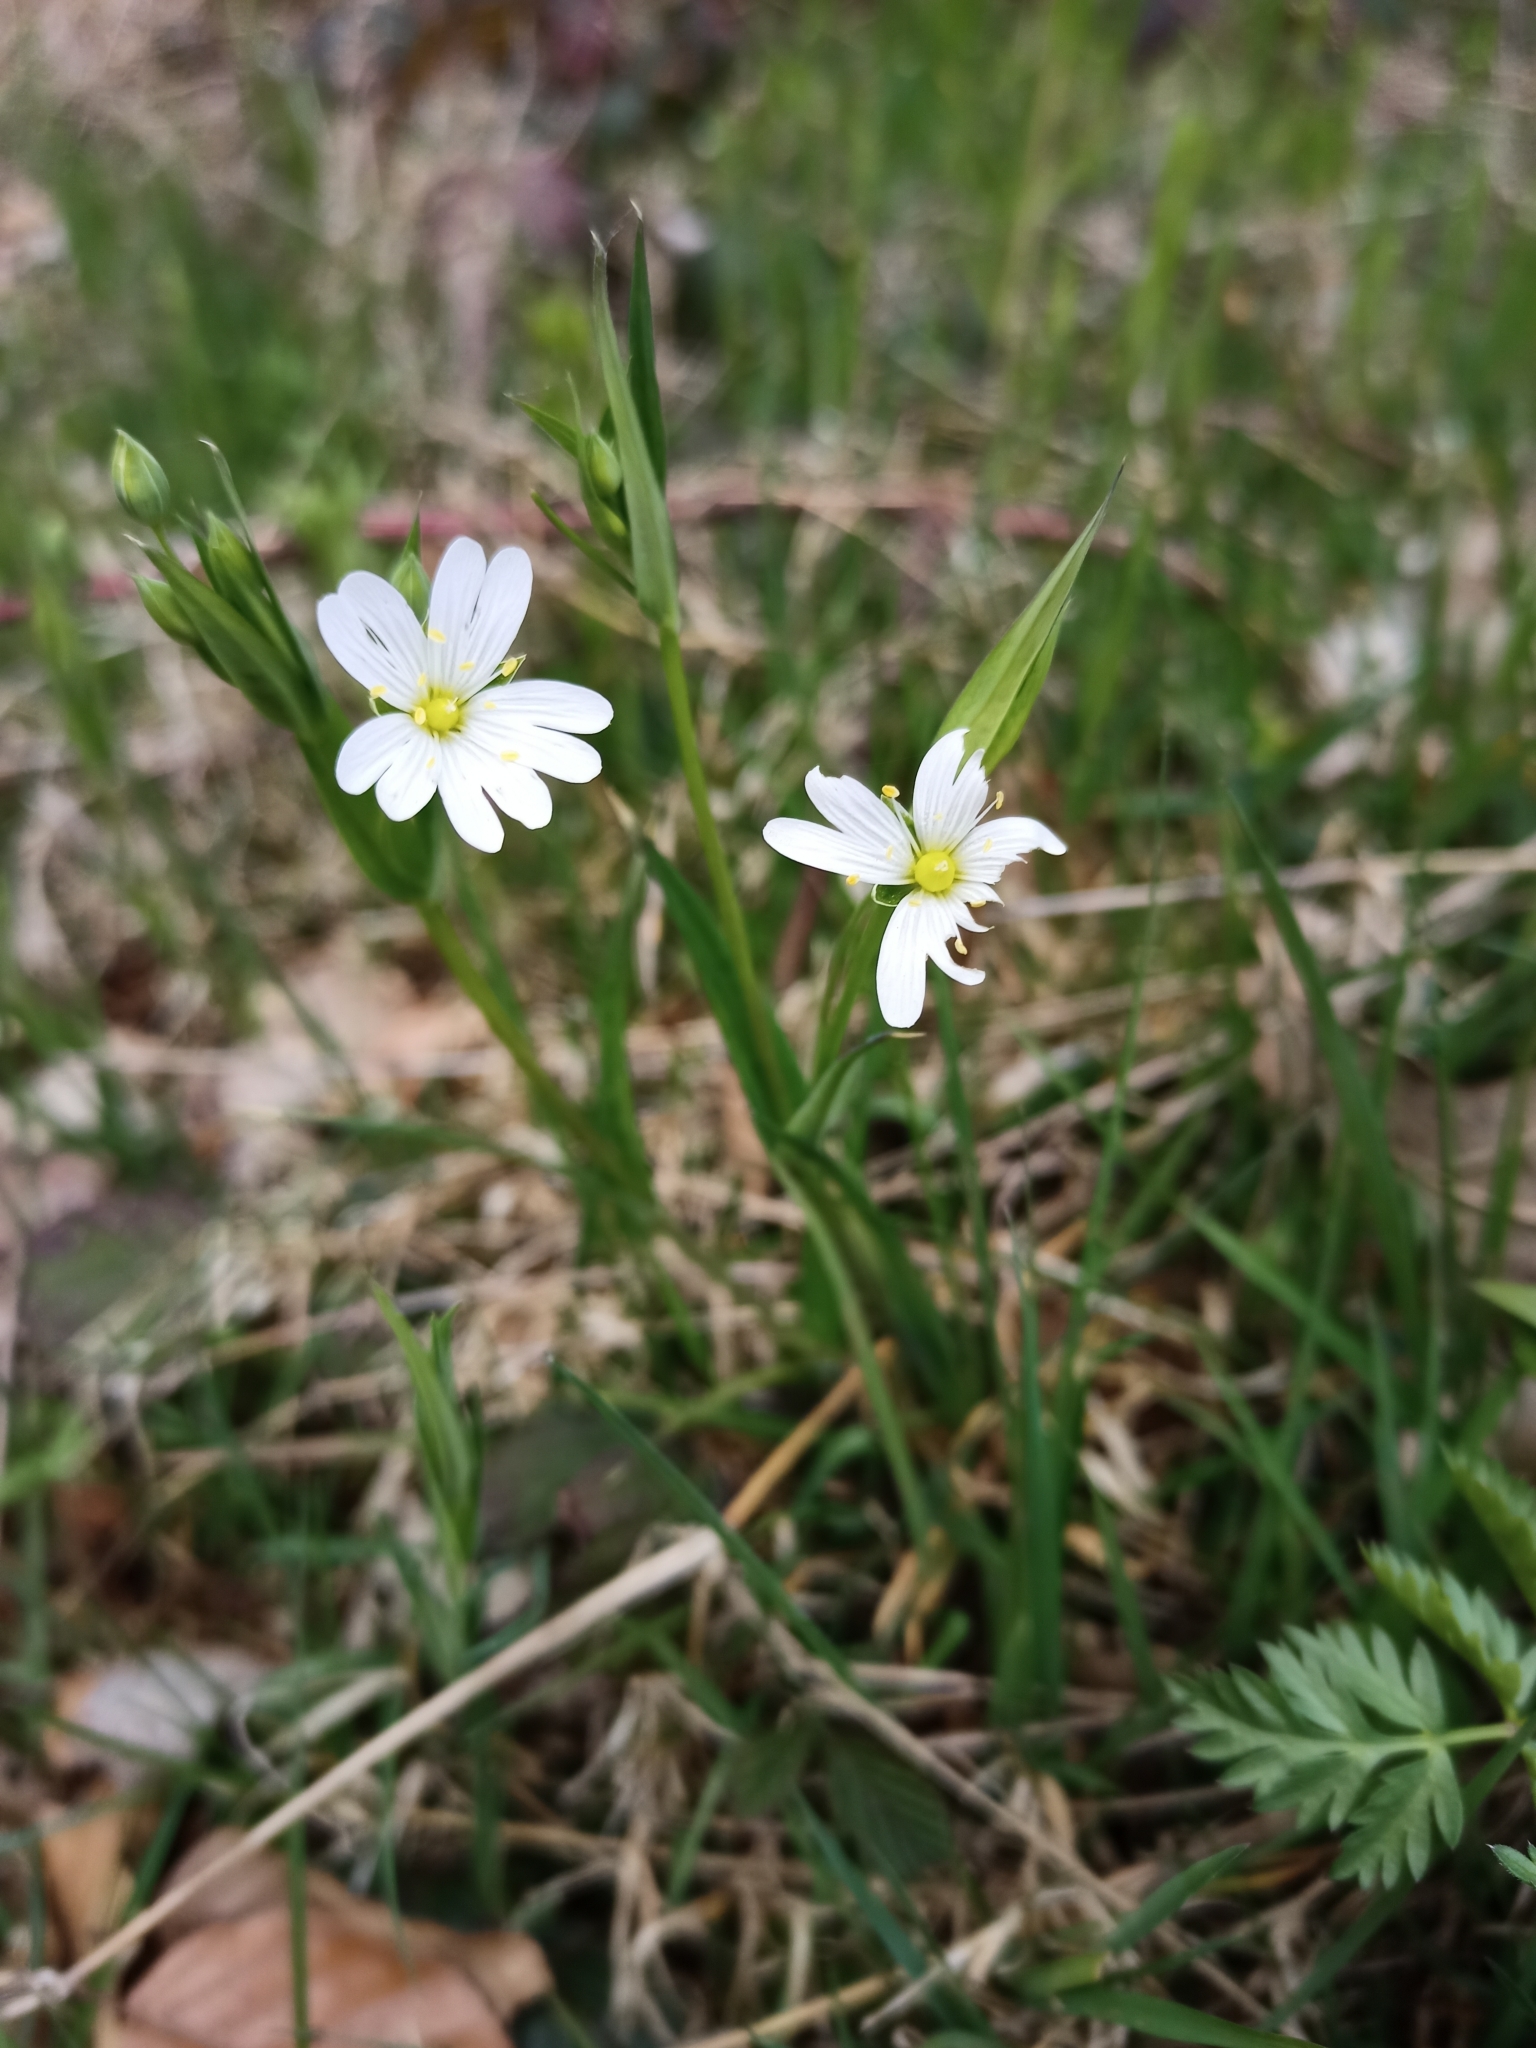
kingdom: Plantae
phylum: Tracheophyta
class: Magnoliopsida
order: Caryophyllales
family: Caryophyllaceae
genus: Rabelera
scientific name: Rabelera holostea
